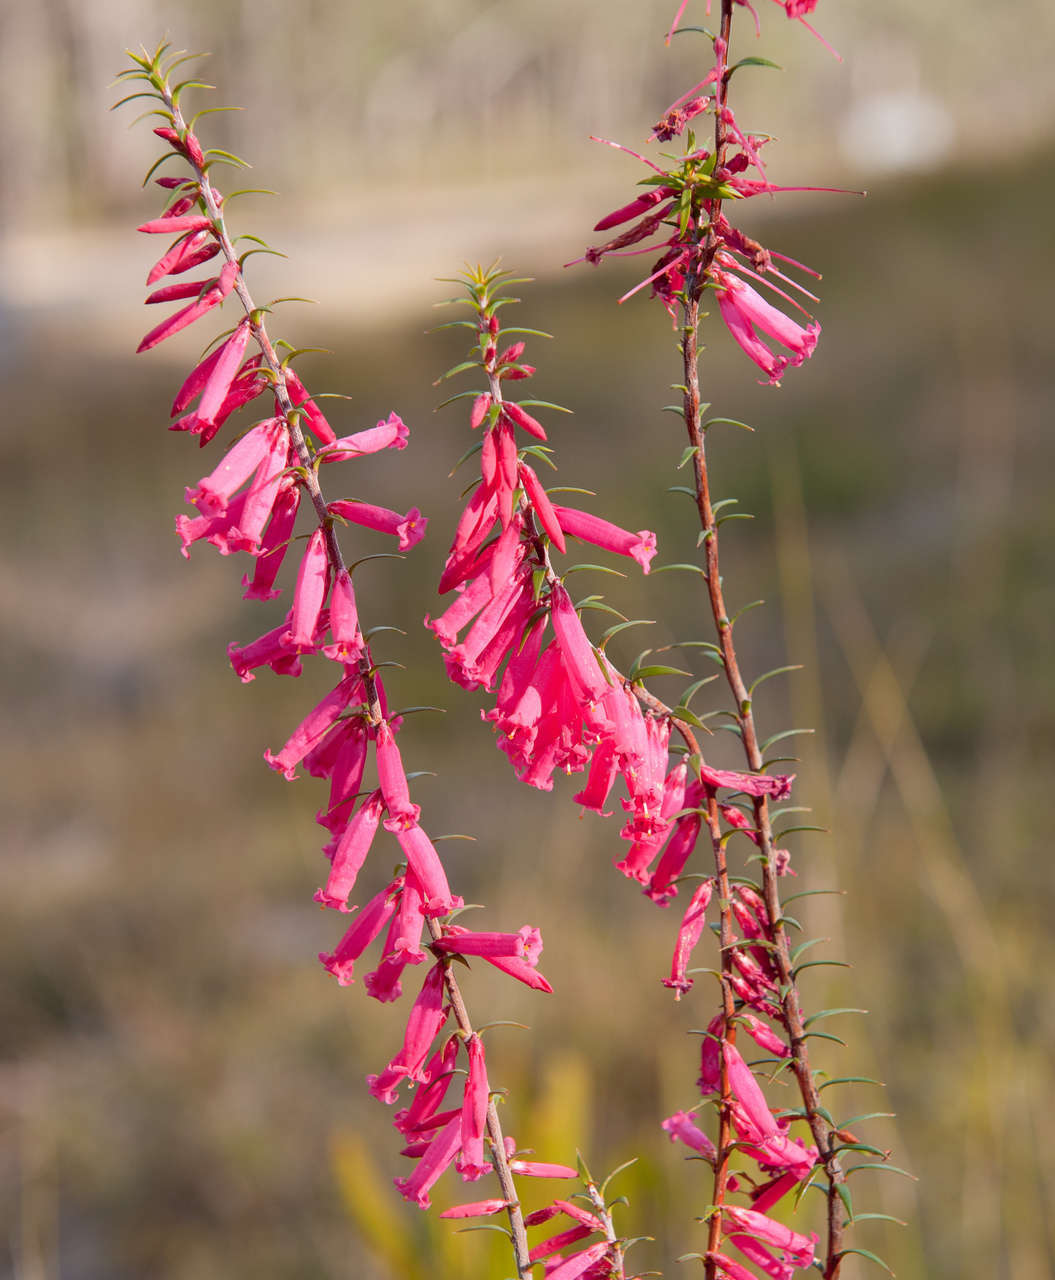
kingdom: Plantae
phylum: Tracheophyta
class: Magnoliopsida
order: Ericales
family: Ericaceae
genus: Epacris
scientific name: Epacris impressa
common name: Common-heath
